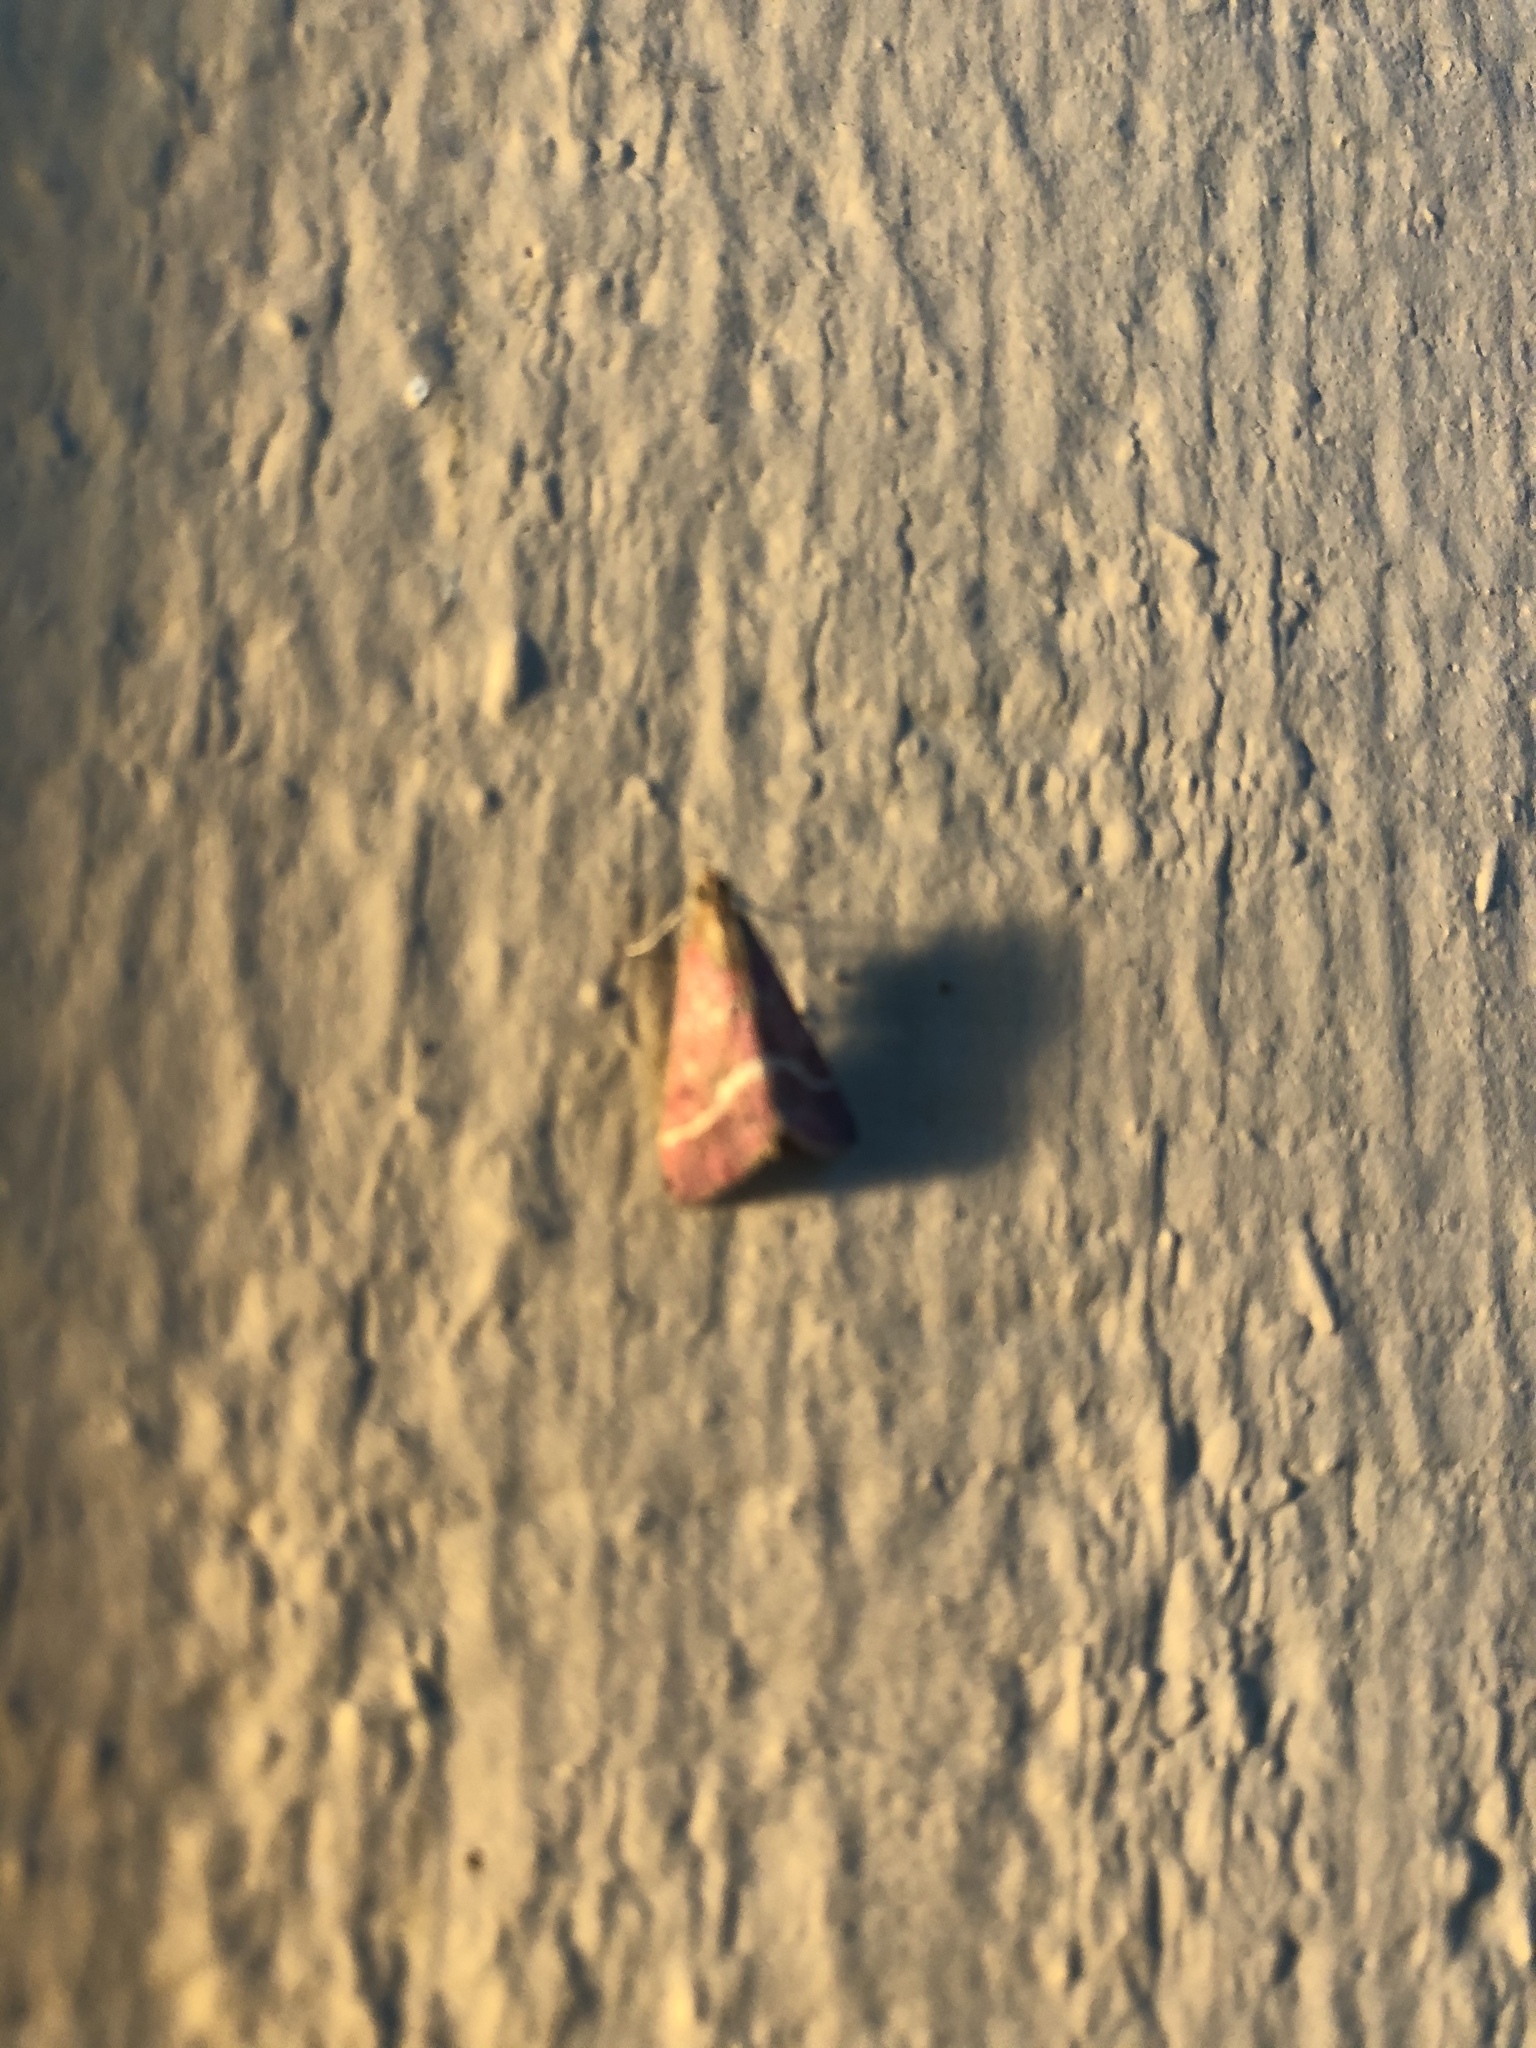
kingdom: Animalia
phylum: Arthropoda
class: Insecta
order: Lepidoptera
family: Crambidae
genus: Pyrausta
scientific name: Pyrausta volupialis
